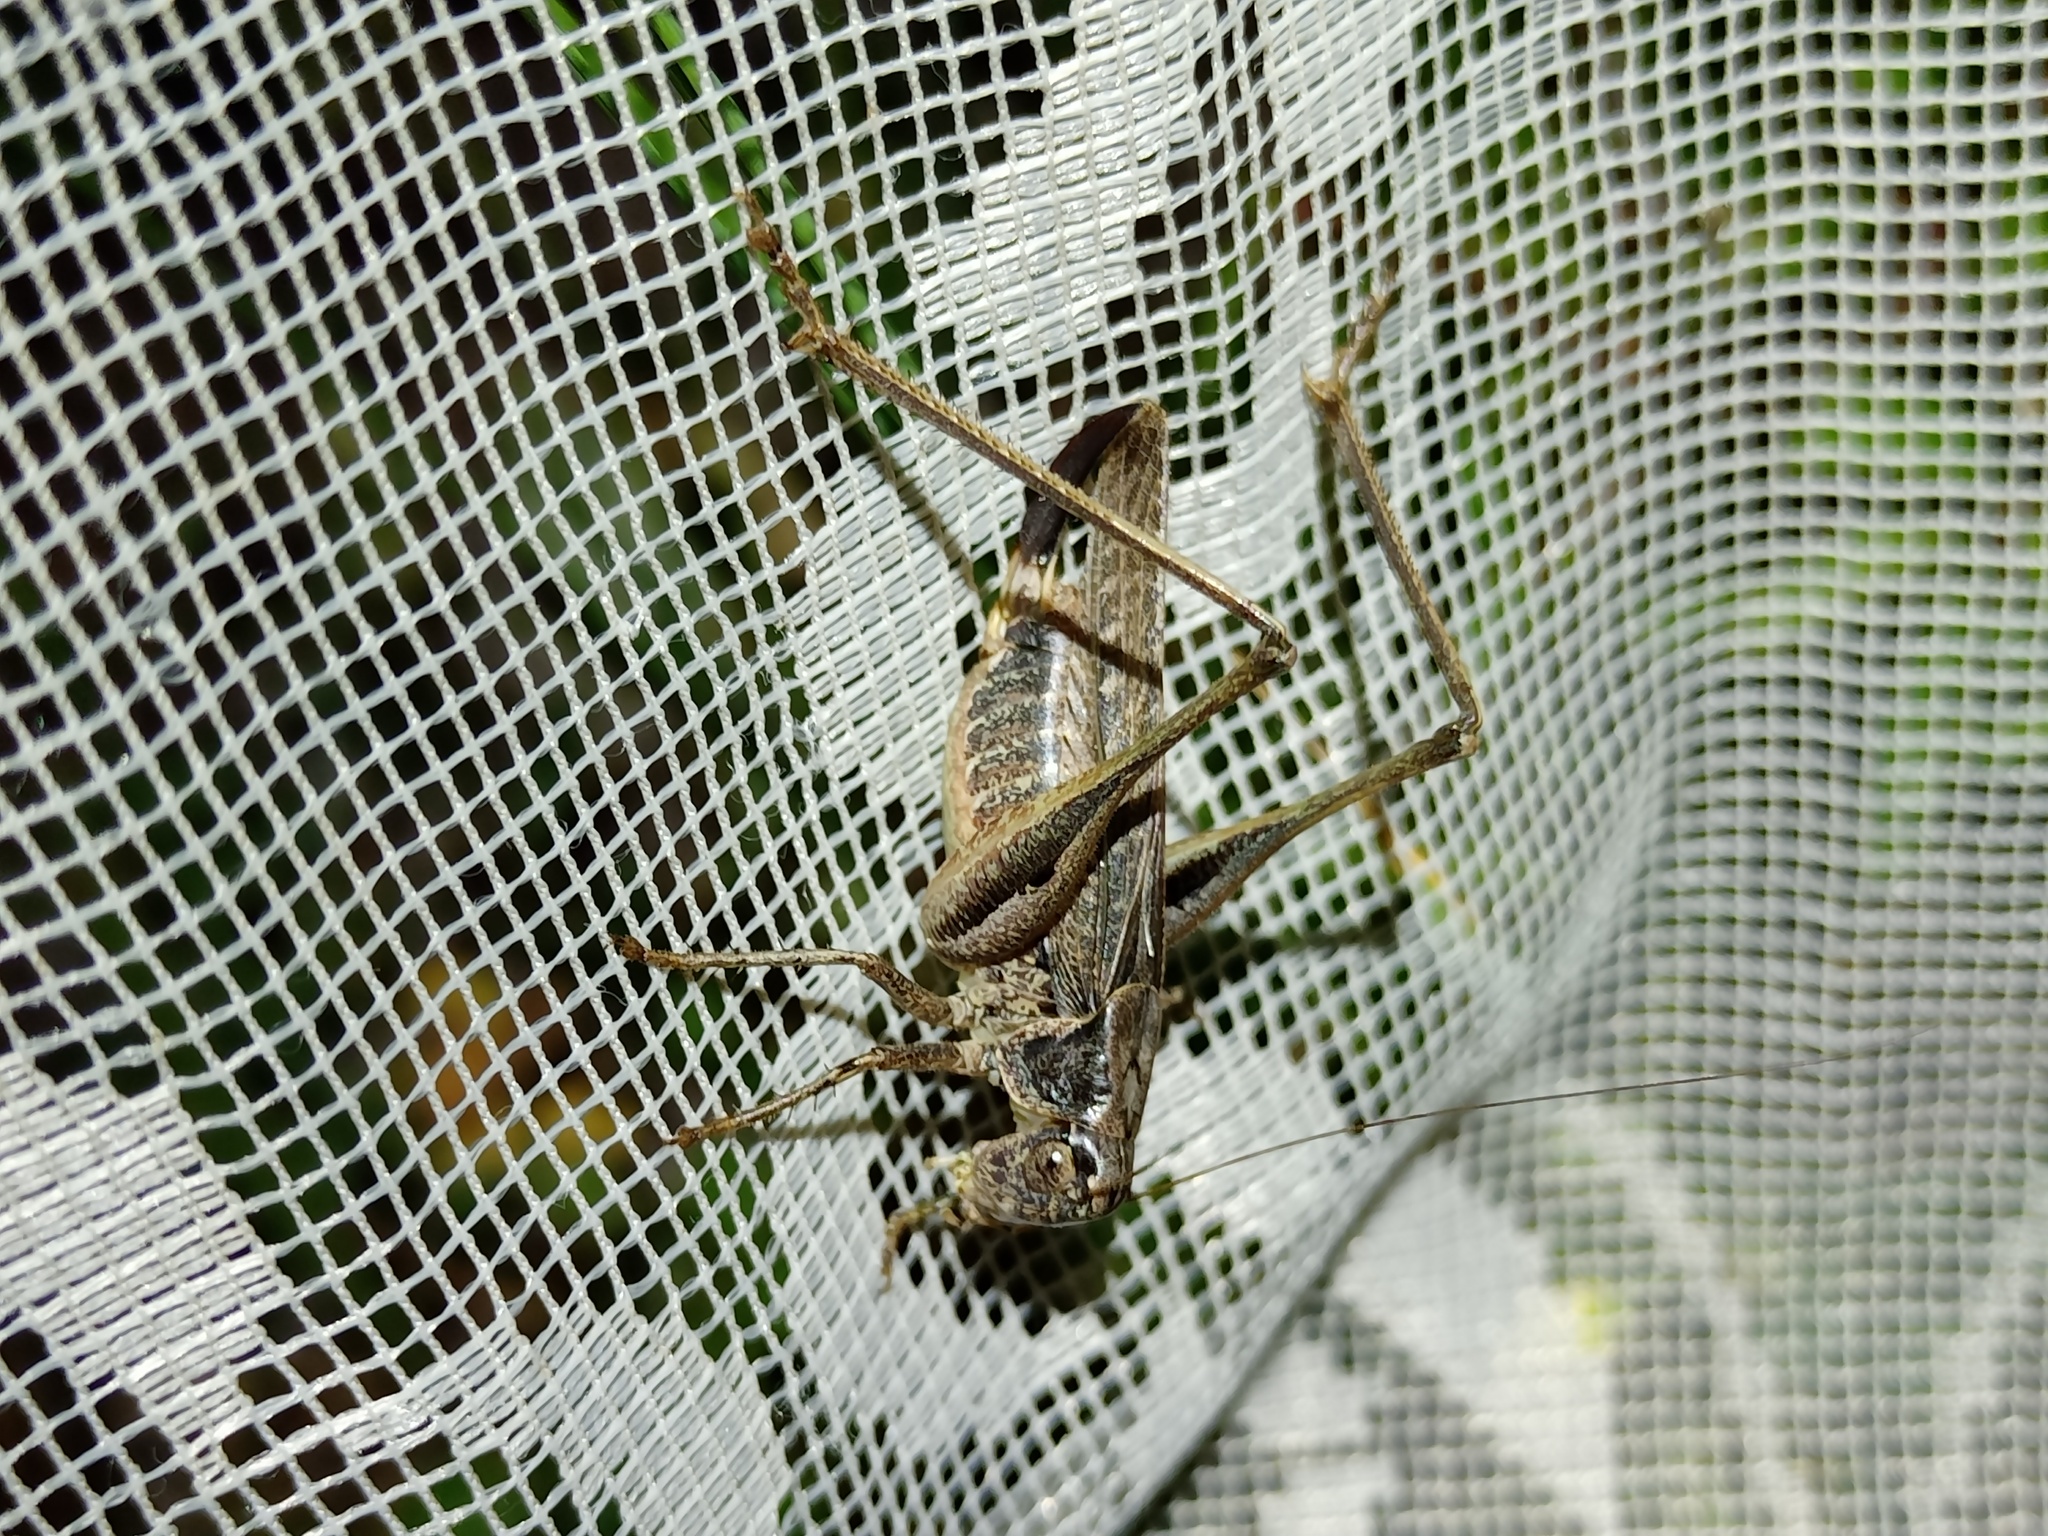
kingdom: Animalia
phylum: Arthropoda
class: Insecta
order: Orthoptera
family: Tettigoniidae
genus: Platycleis
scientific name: Platycleis albopunctata
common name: Grey bush-cricket
